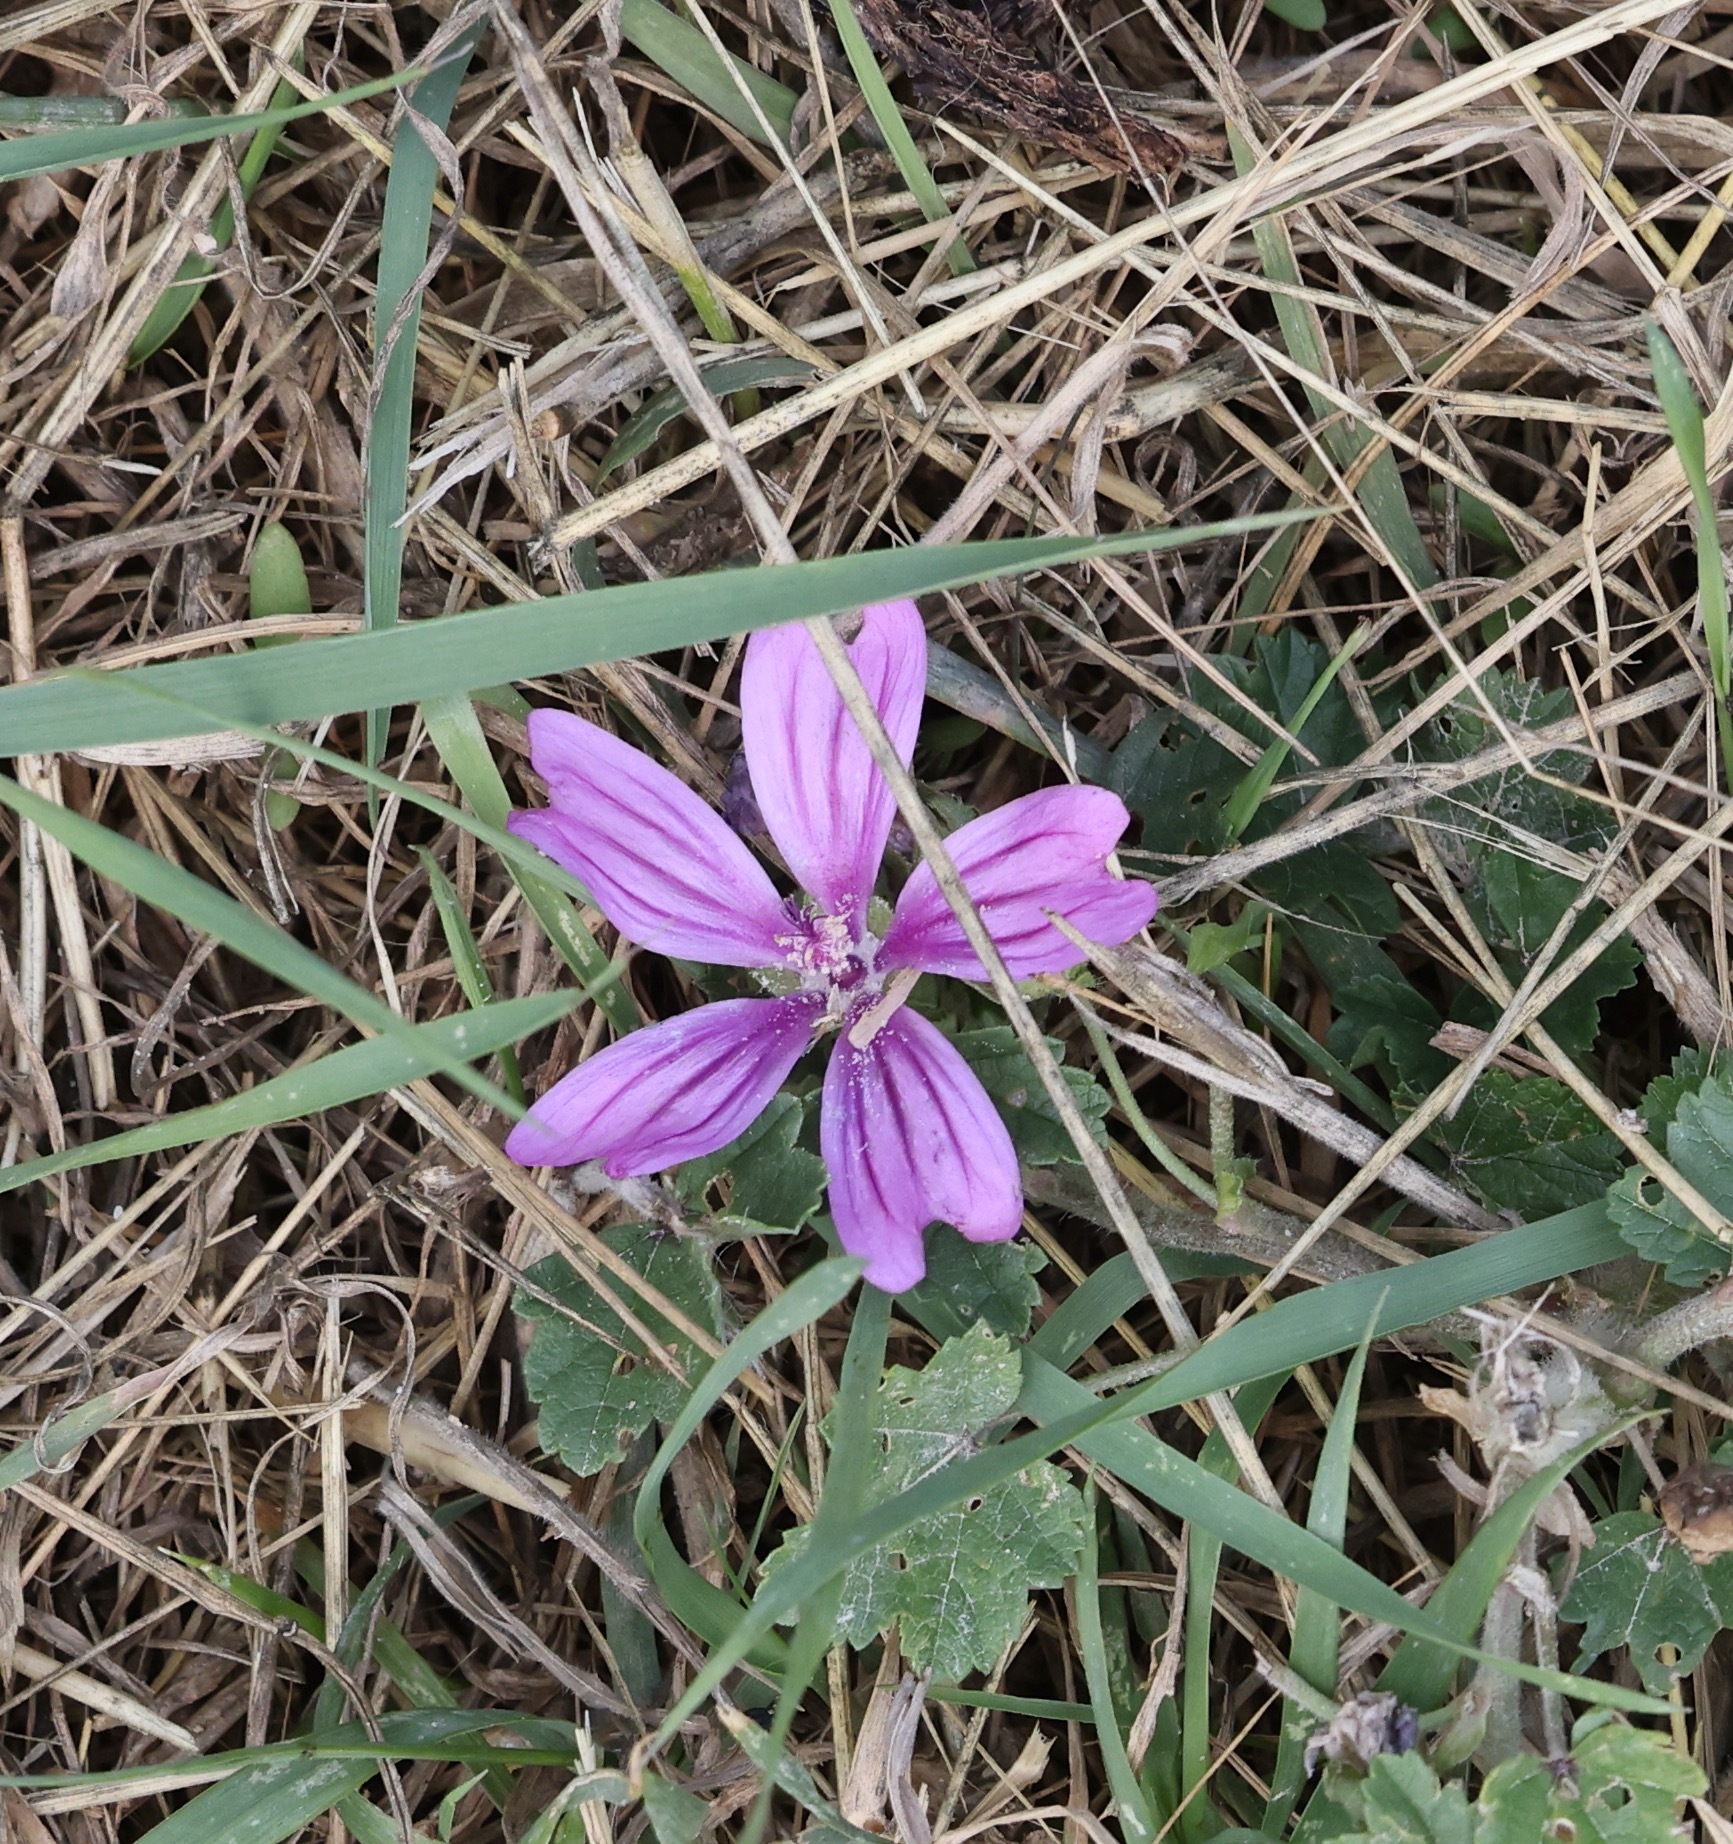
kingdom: Plantae
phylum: Tracheophyta
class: Magnoliopsida
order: Malvales
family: Malvaceae
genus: Malva
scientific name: Malva sylvestris
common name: Common mallow
